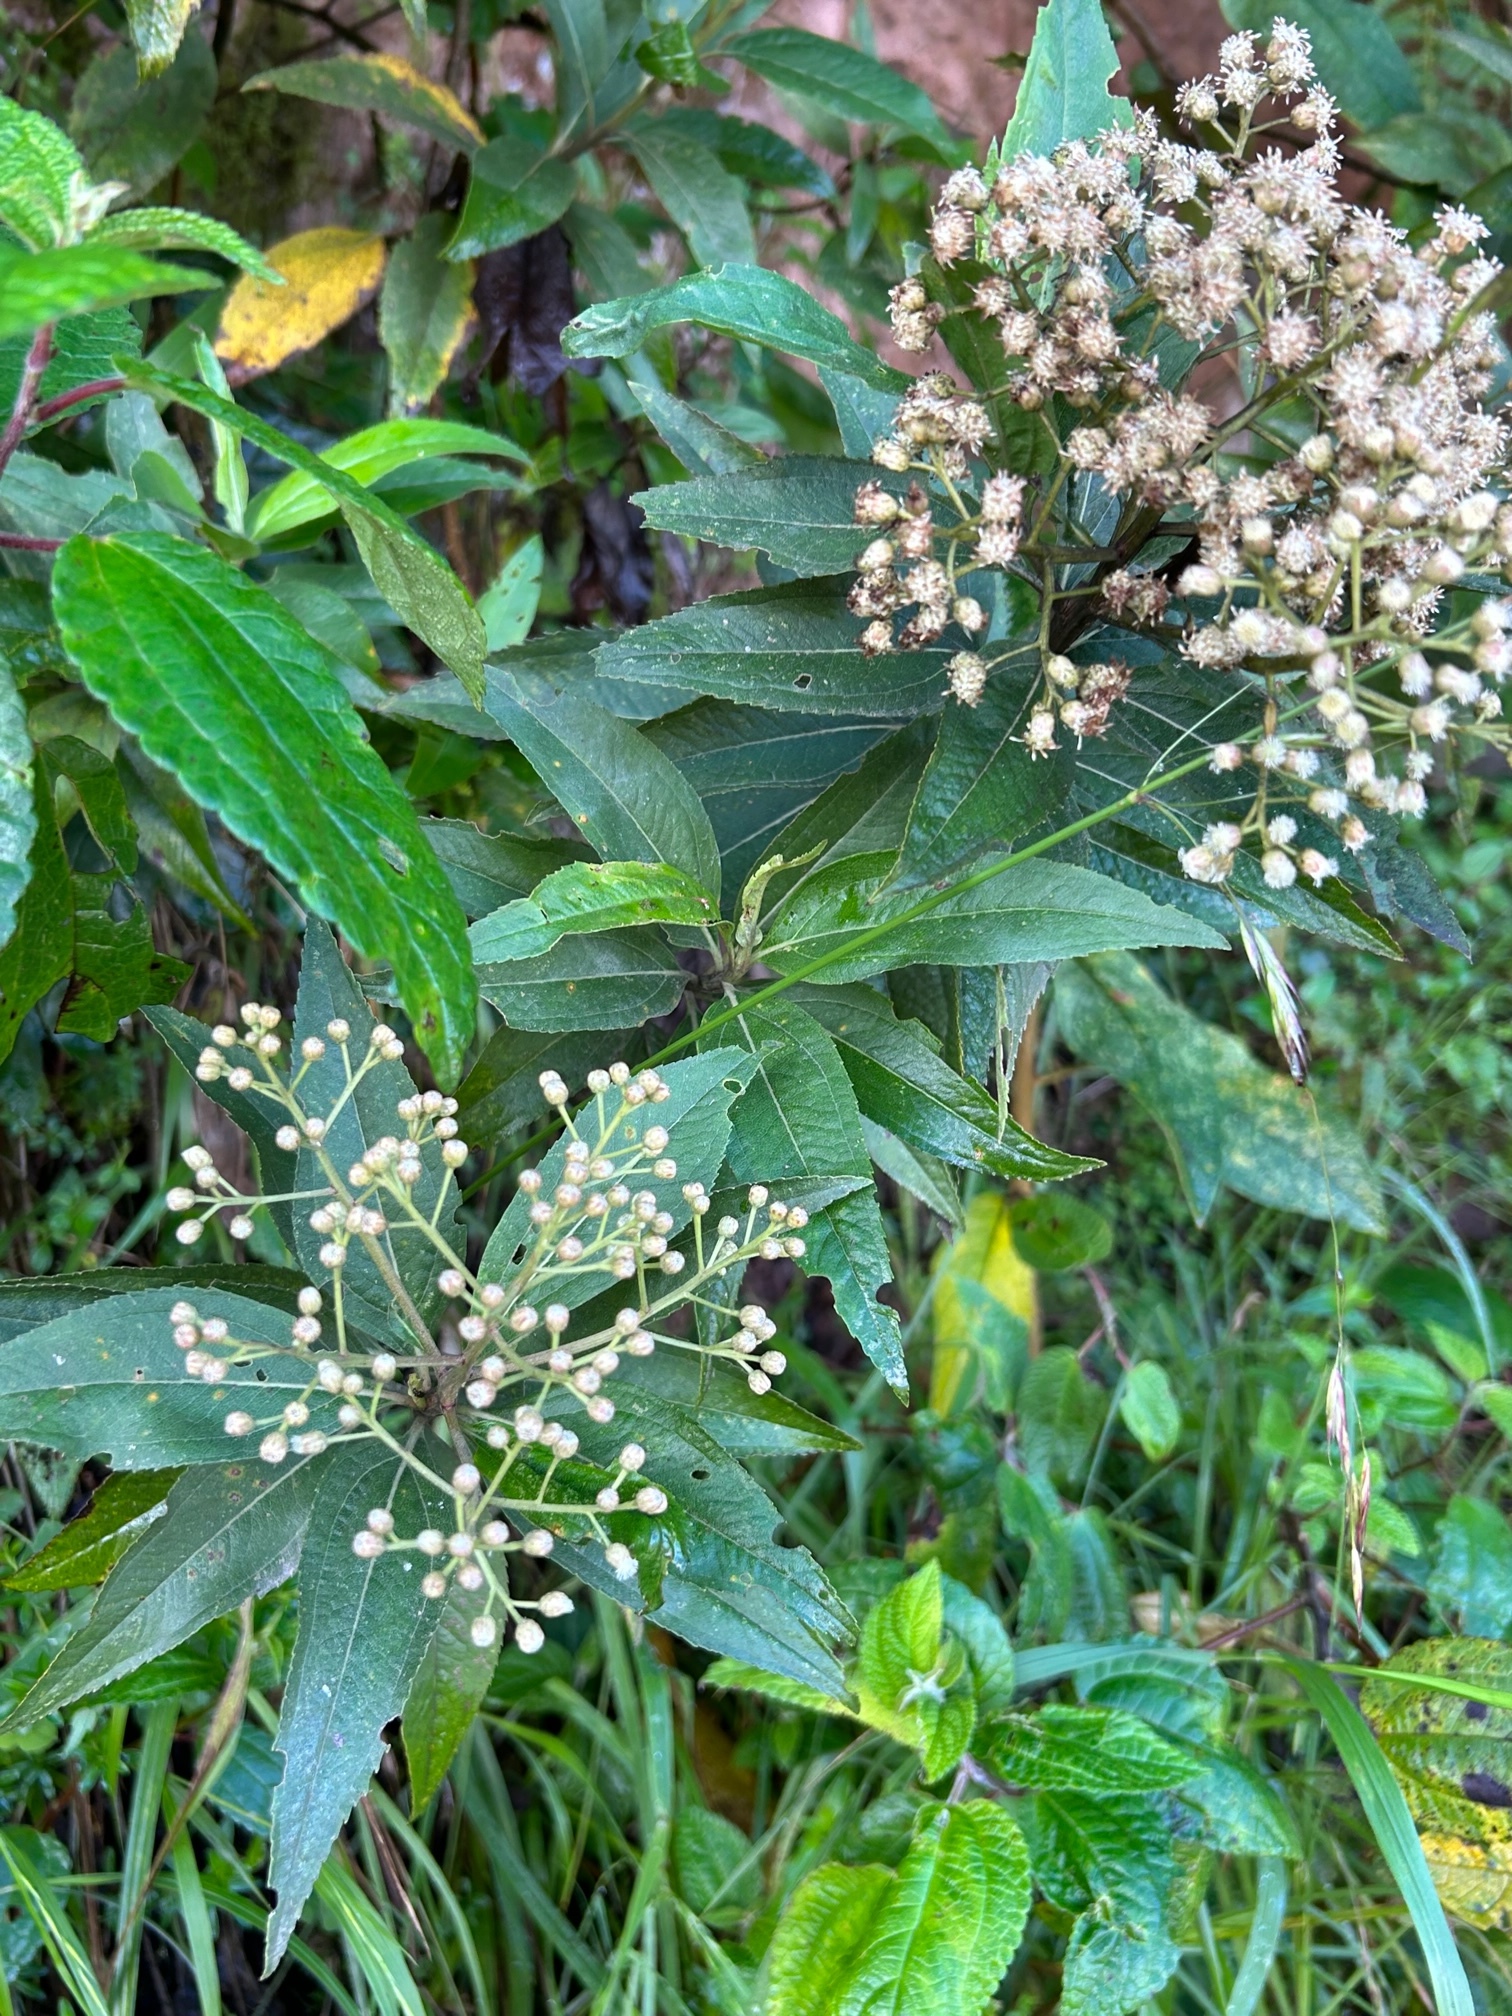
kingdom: Plantae
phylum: Tracheophyta
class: Magnoliopsida
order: Asterales
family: Asteraceae
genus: Baccharis
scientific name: Baccharis latifolia
